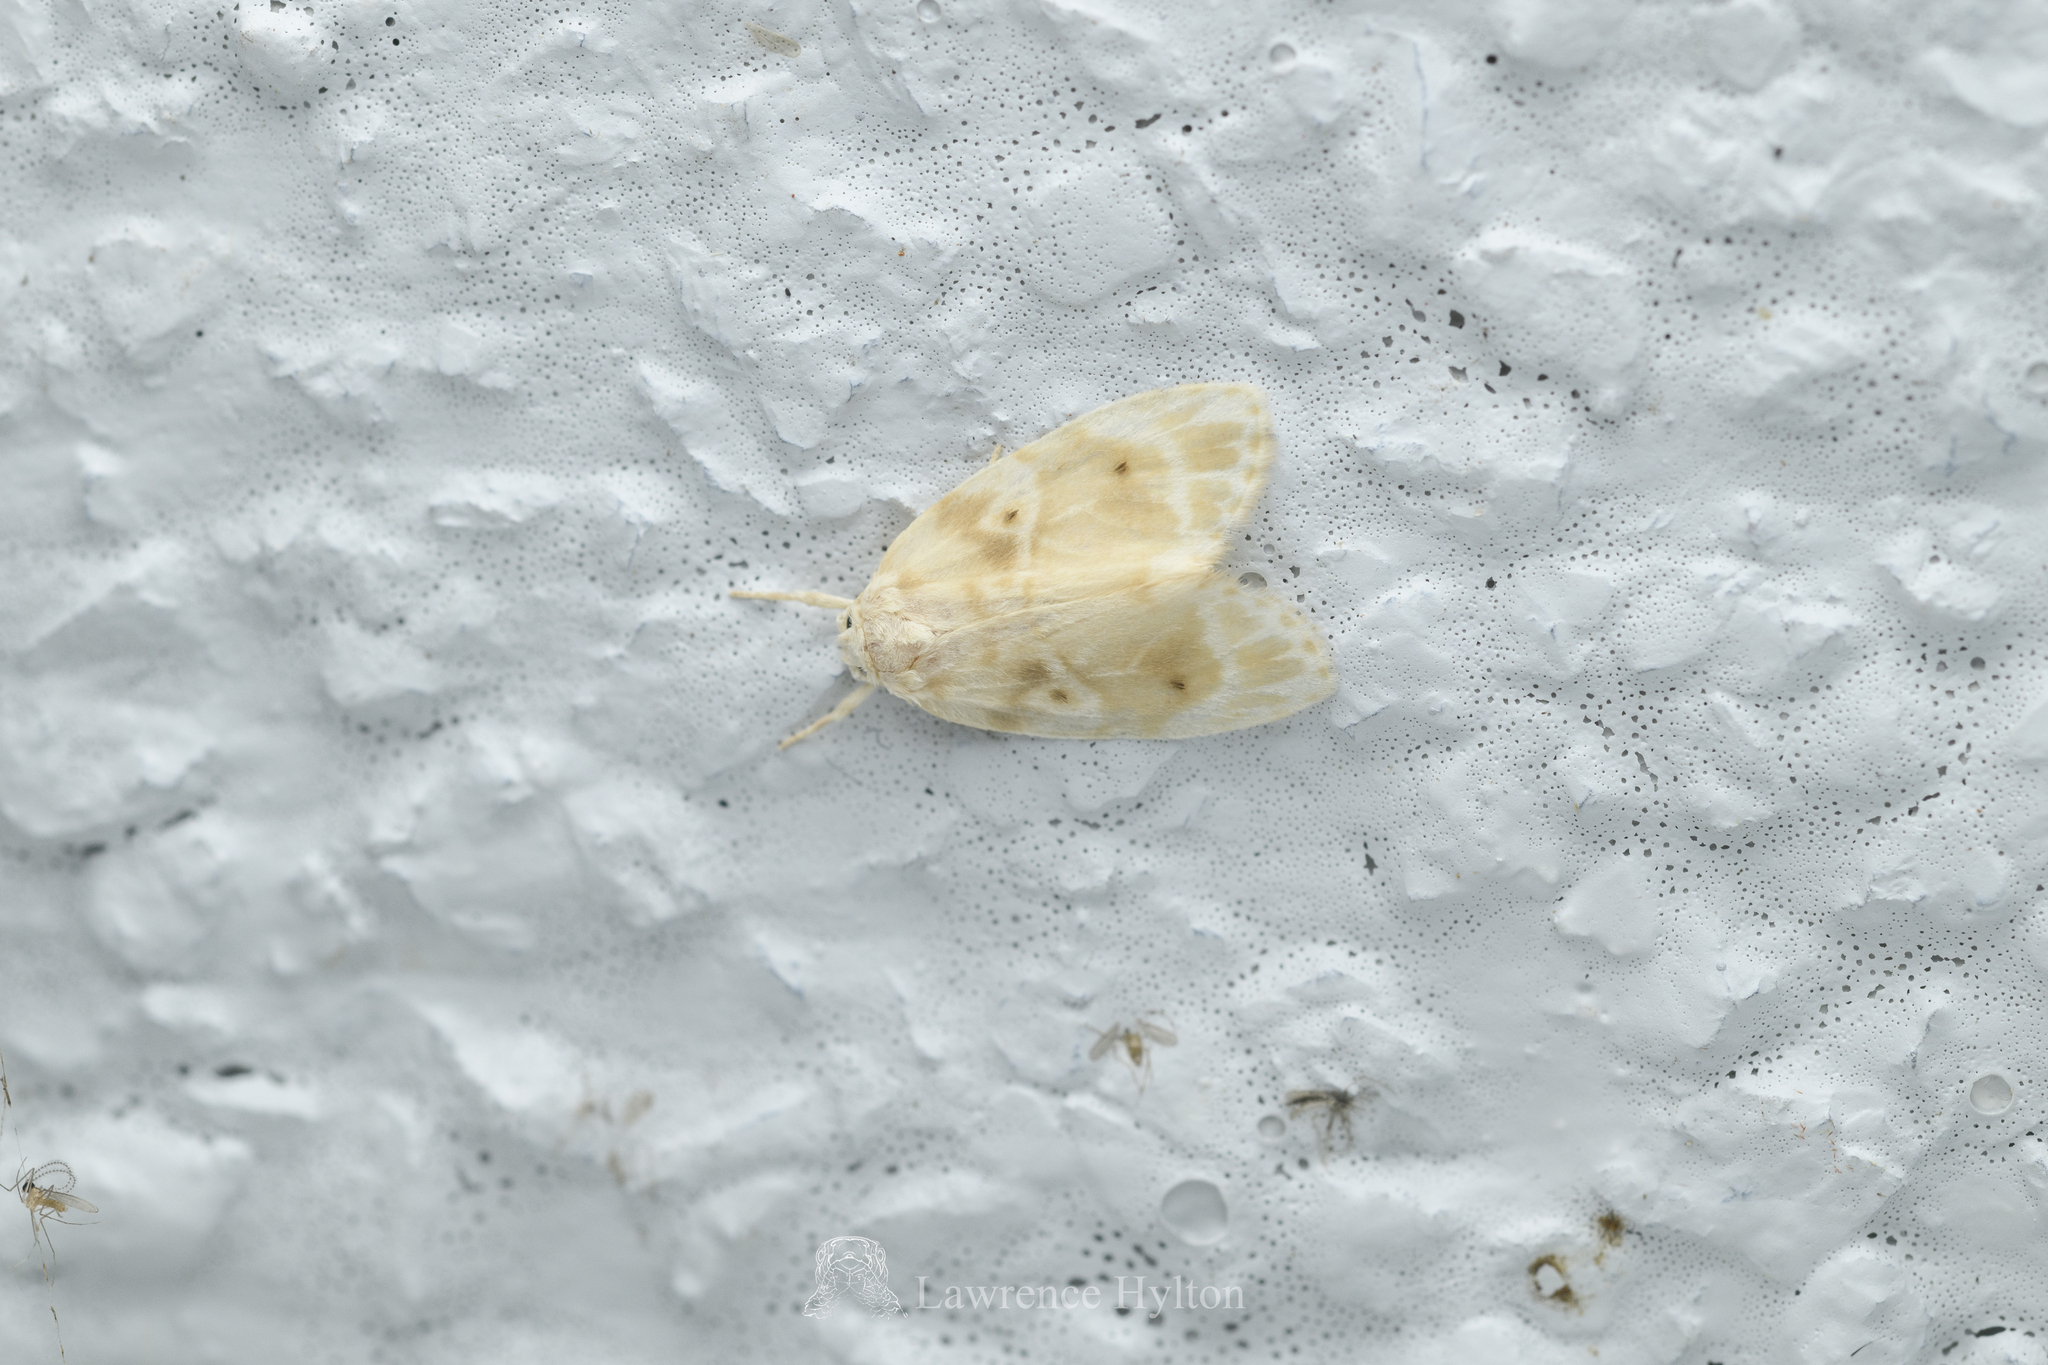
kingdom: Animalia
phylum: Arthropoda
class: Insecta
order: Lepidoptera
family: Erebidae
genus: Schistophleps
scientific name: Schistophleps bipuncta
